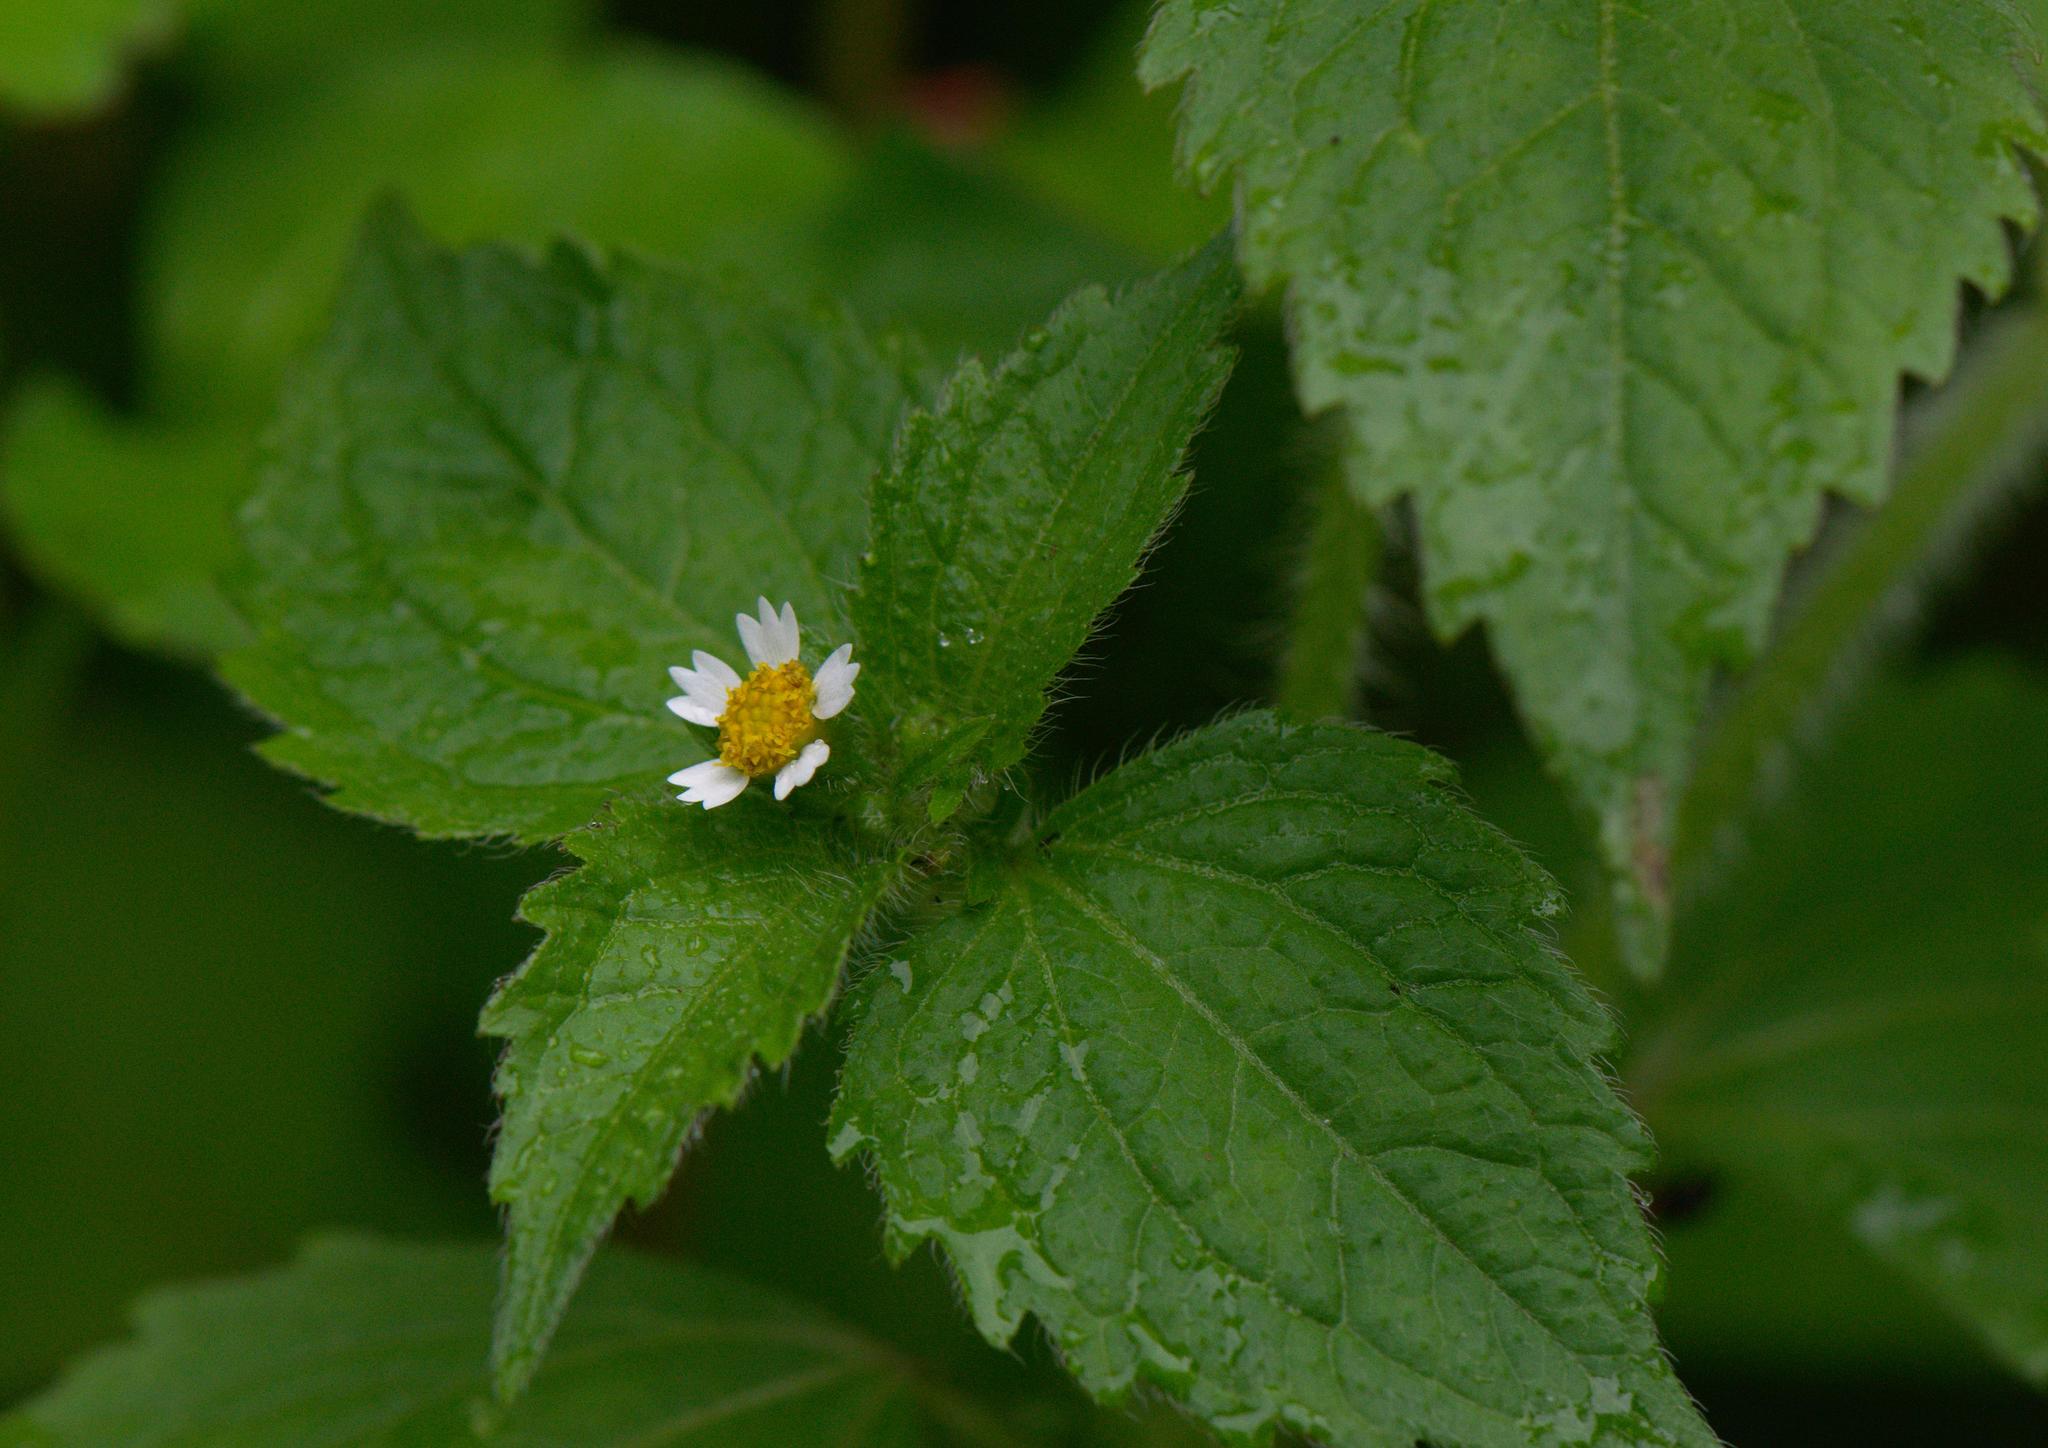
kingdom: Plantae
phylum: Tracheophyta
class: Magnoliopsida
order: Asterales
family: Asteraceae
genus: Galinsoga
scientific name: Galinsoga quadriradiata
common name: Shaggy soldier
